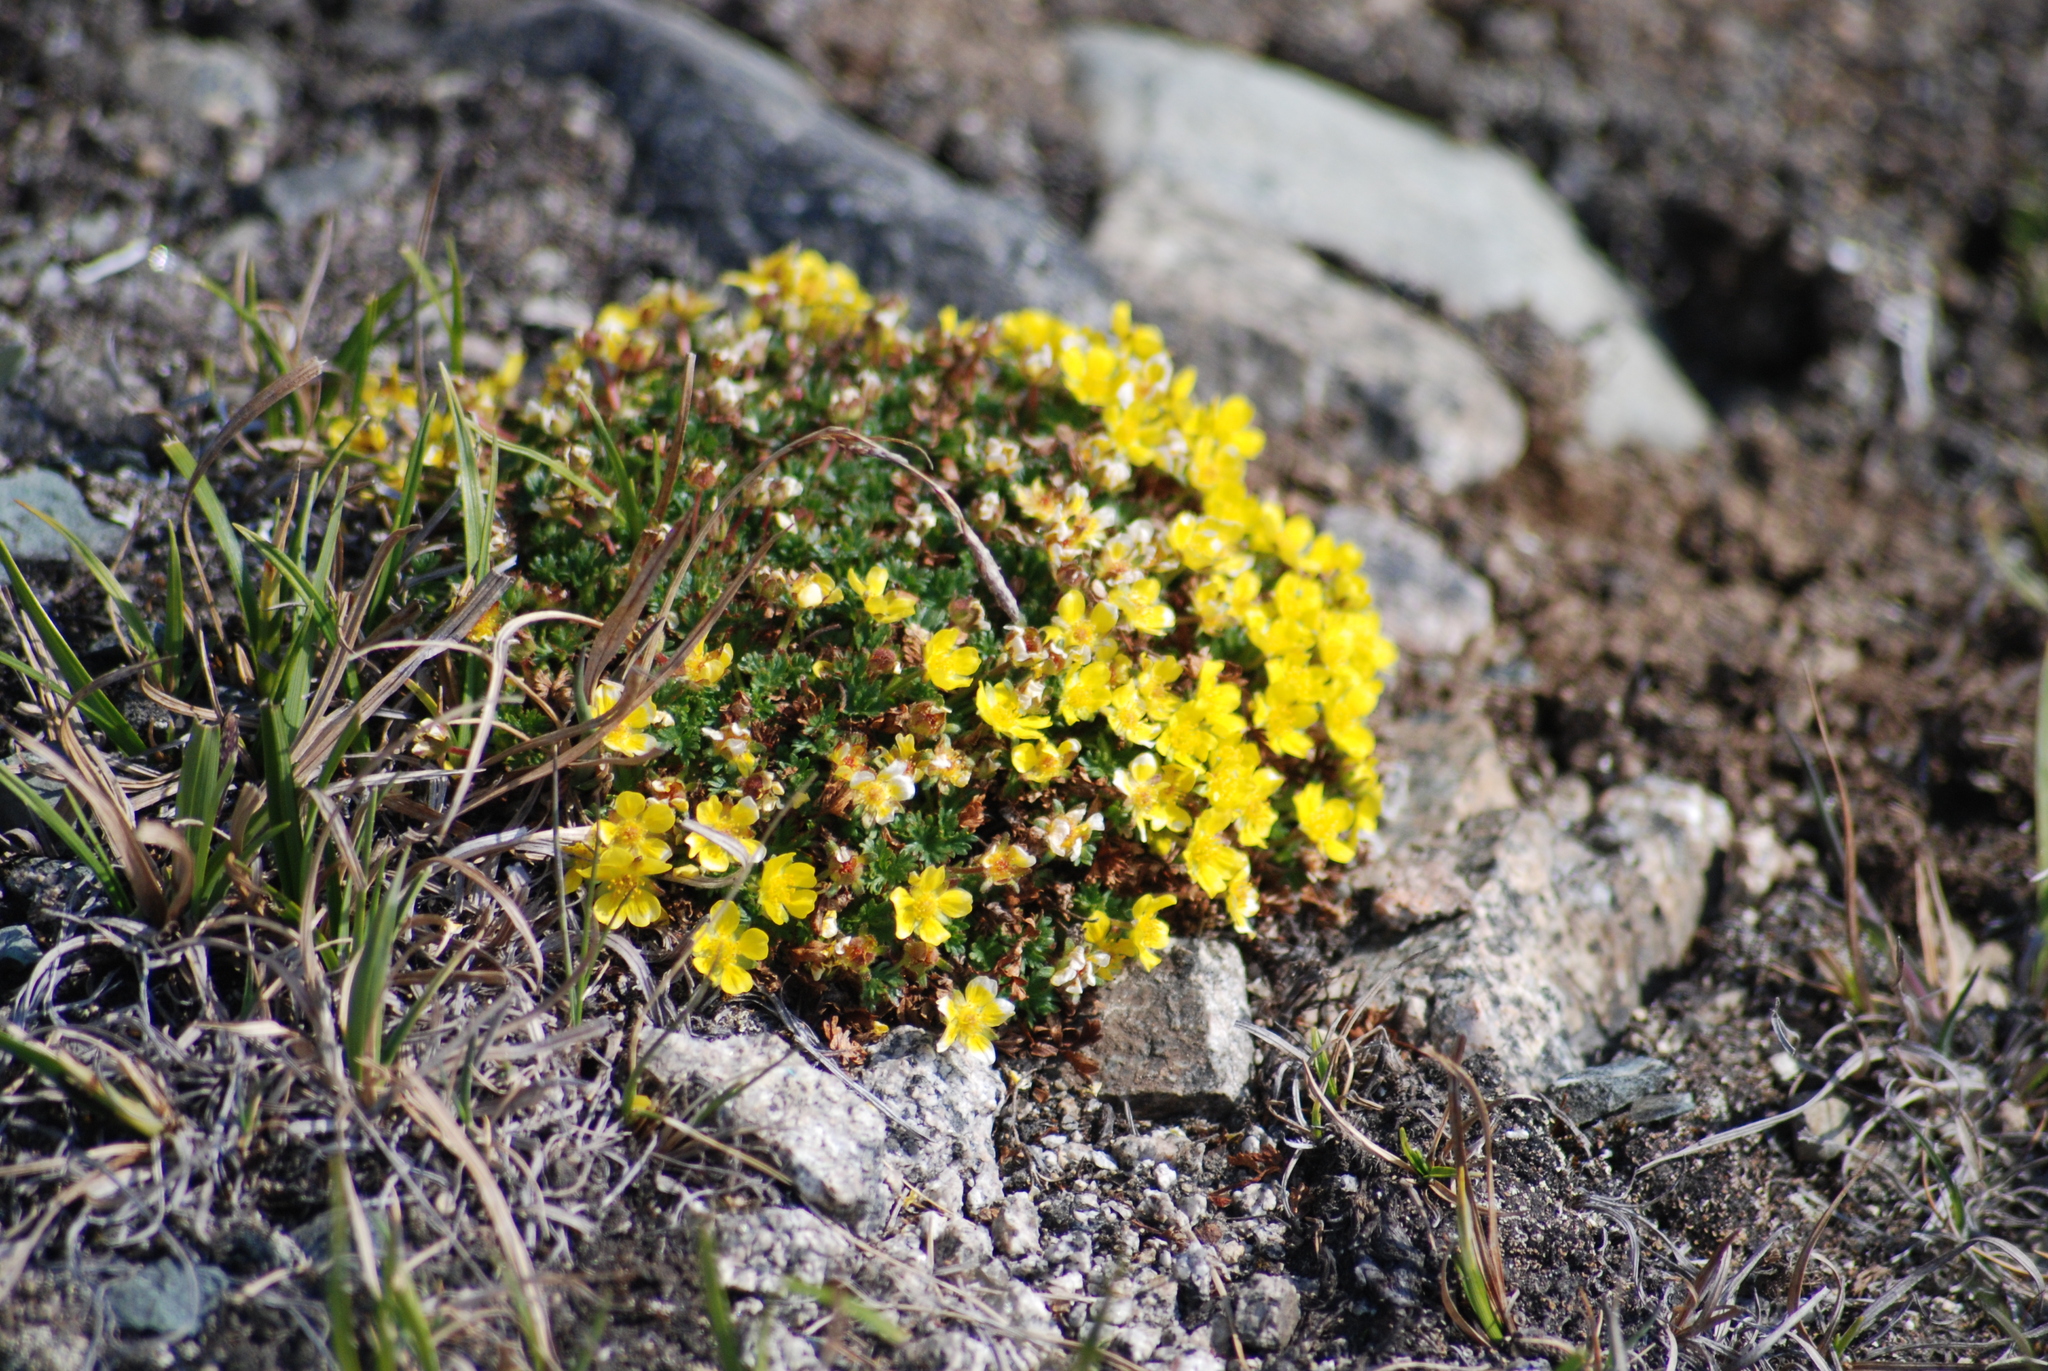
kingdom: Plantae
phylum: Tracheophyta
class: Magnoliopsida
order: Rosales
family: Rosaceae
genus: Potentilla
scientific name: Potentilla elegans
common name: Elegant cinquefoil
